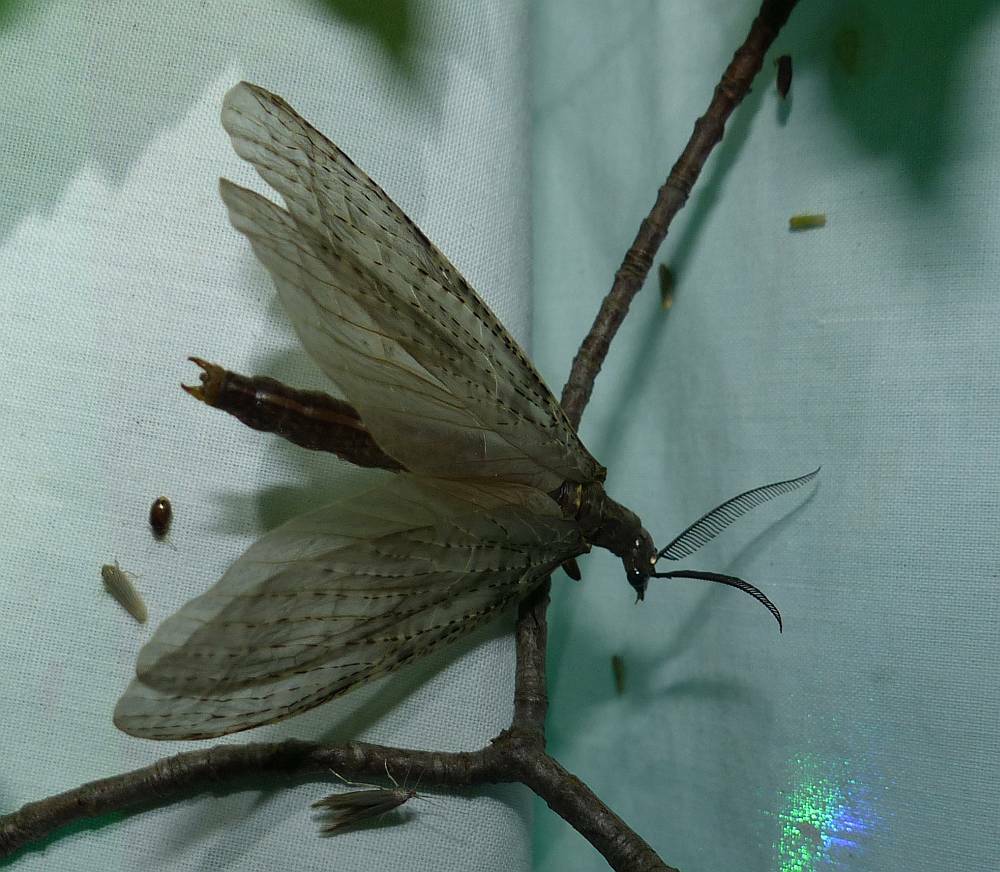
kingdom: Animalia
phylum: Arthropoda
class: Insecta
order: Megaloptera
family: Corydalidae
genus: Chauliodes
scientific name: Chauliodes pectinicornis
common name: Summer fishfly
